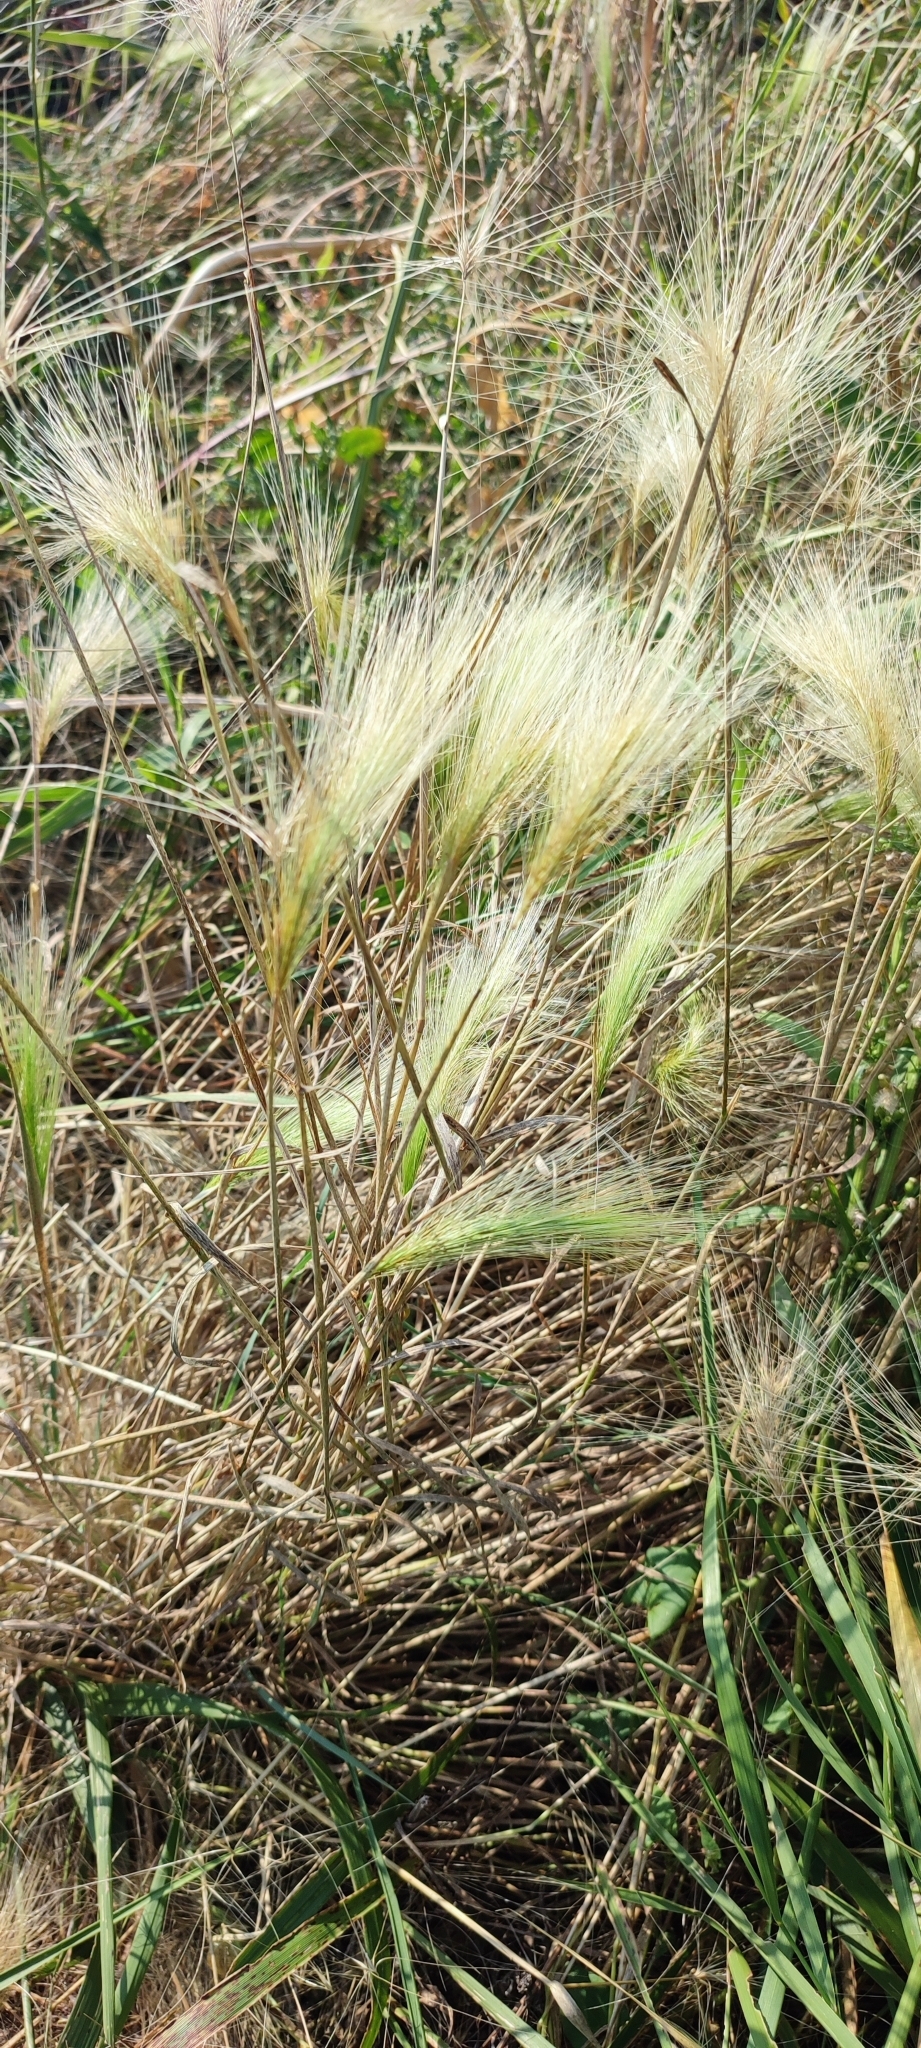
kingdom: Plantae
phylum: Tracheophyta
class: Liliopsida
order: Poales
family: Poaceae
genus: Hordeum
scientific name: Hordeum jubatum
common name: Foxtail barley
